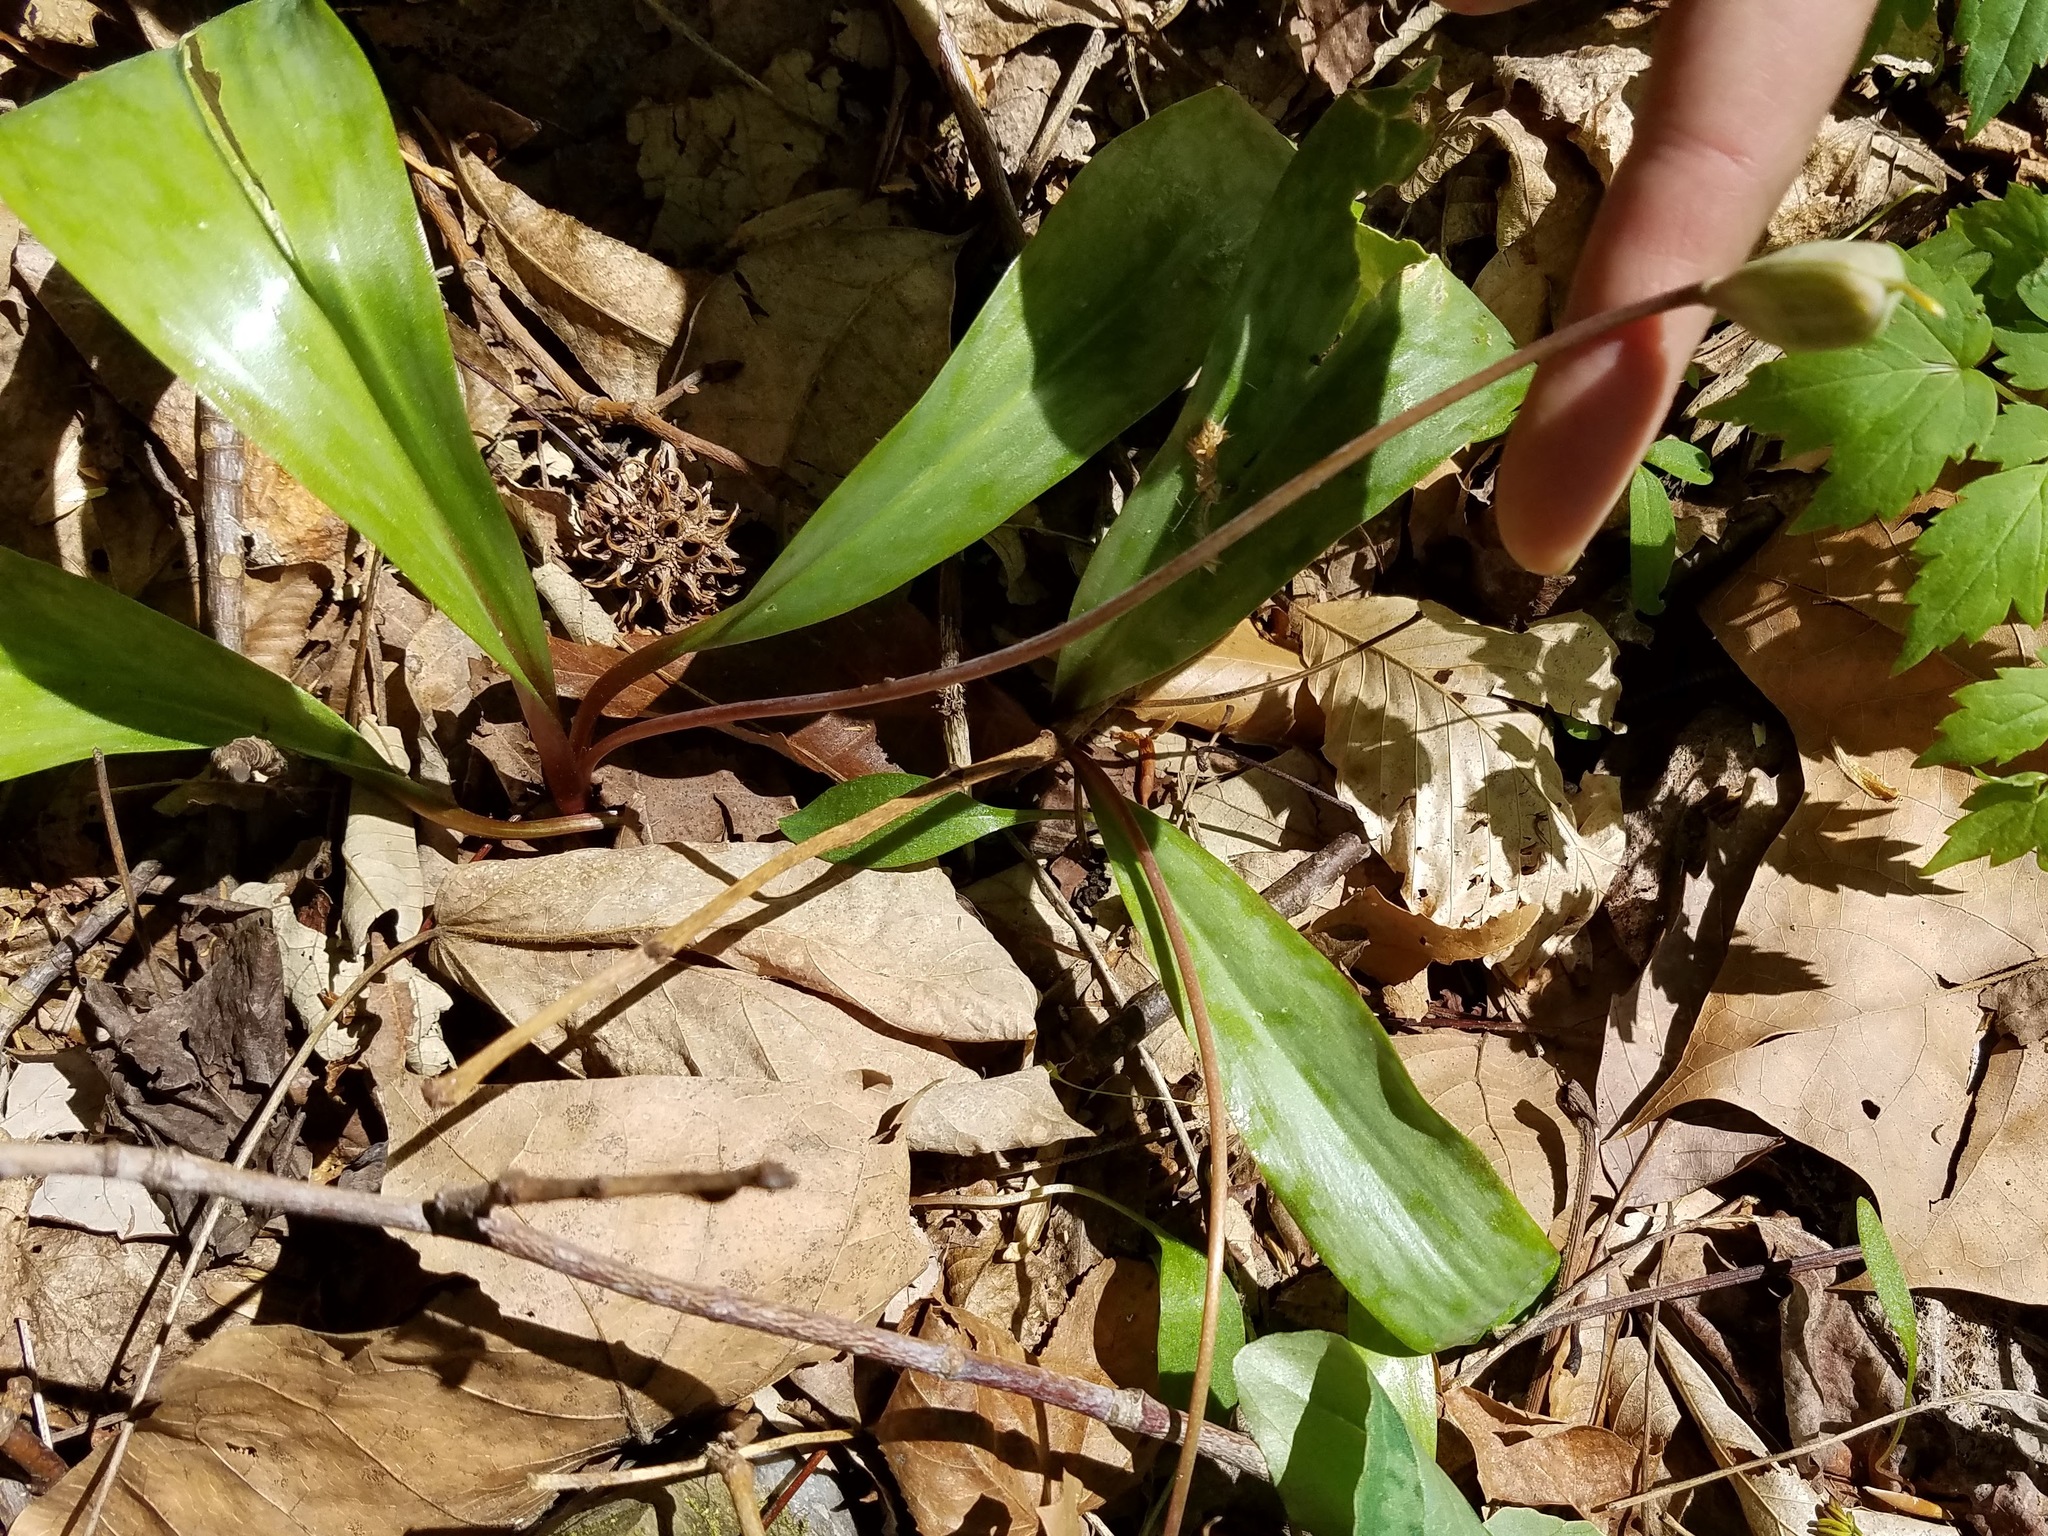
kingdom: Plantae
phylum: Tracheophyta
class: Liliopsida
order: Liliales
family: Liliaceae
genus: Erythronium
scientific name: Erythronium americanum
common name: Yellow adder's-tongue
